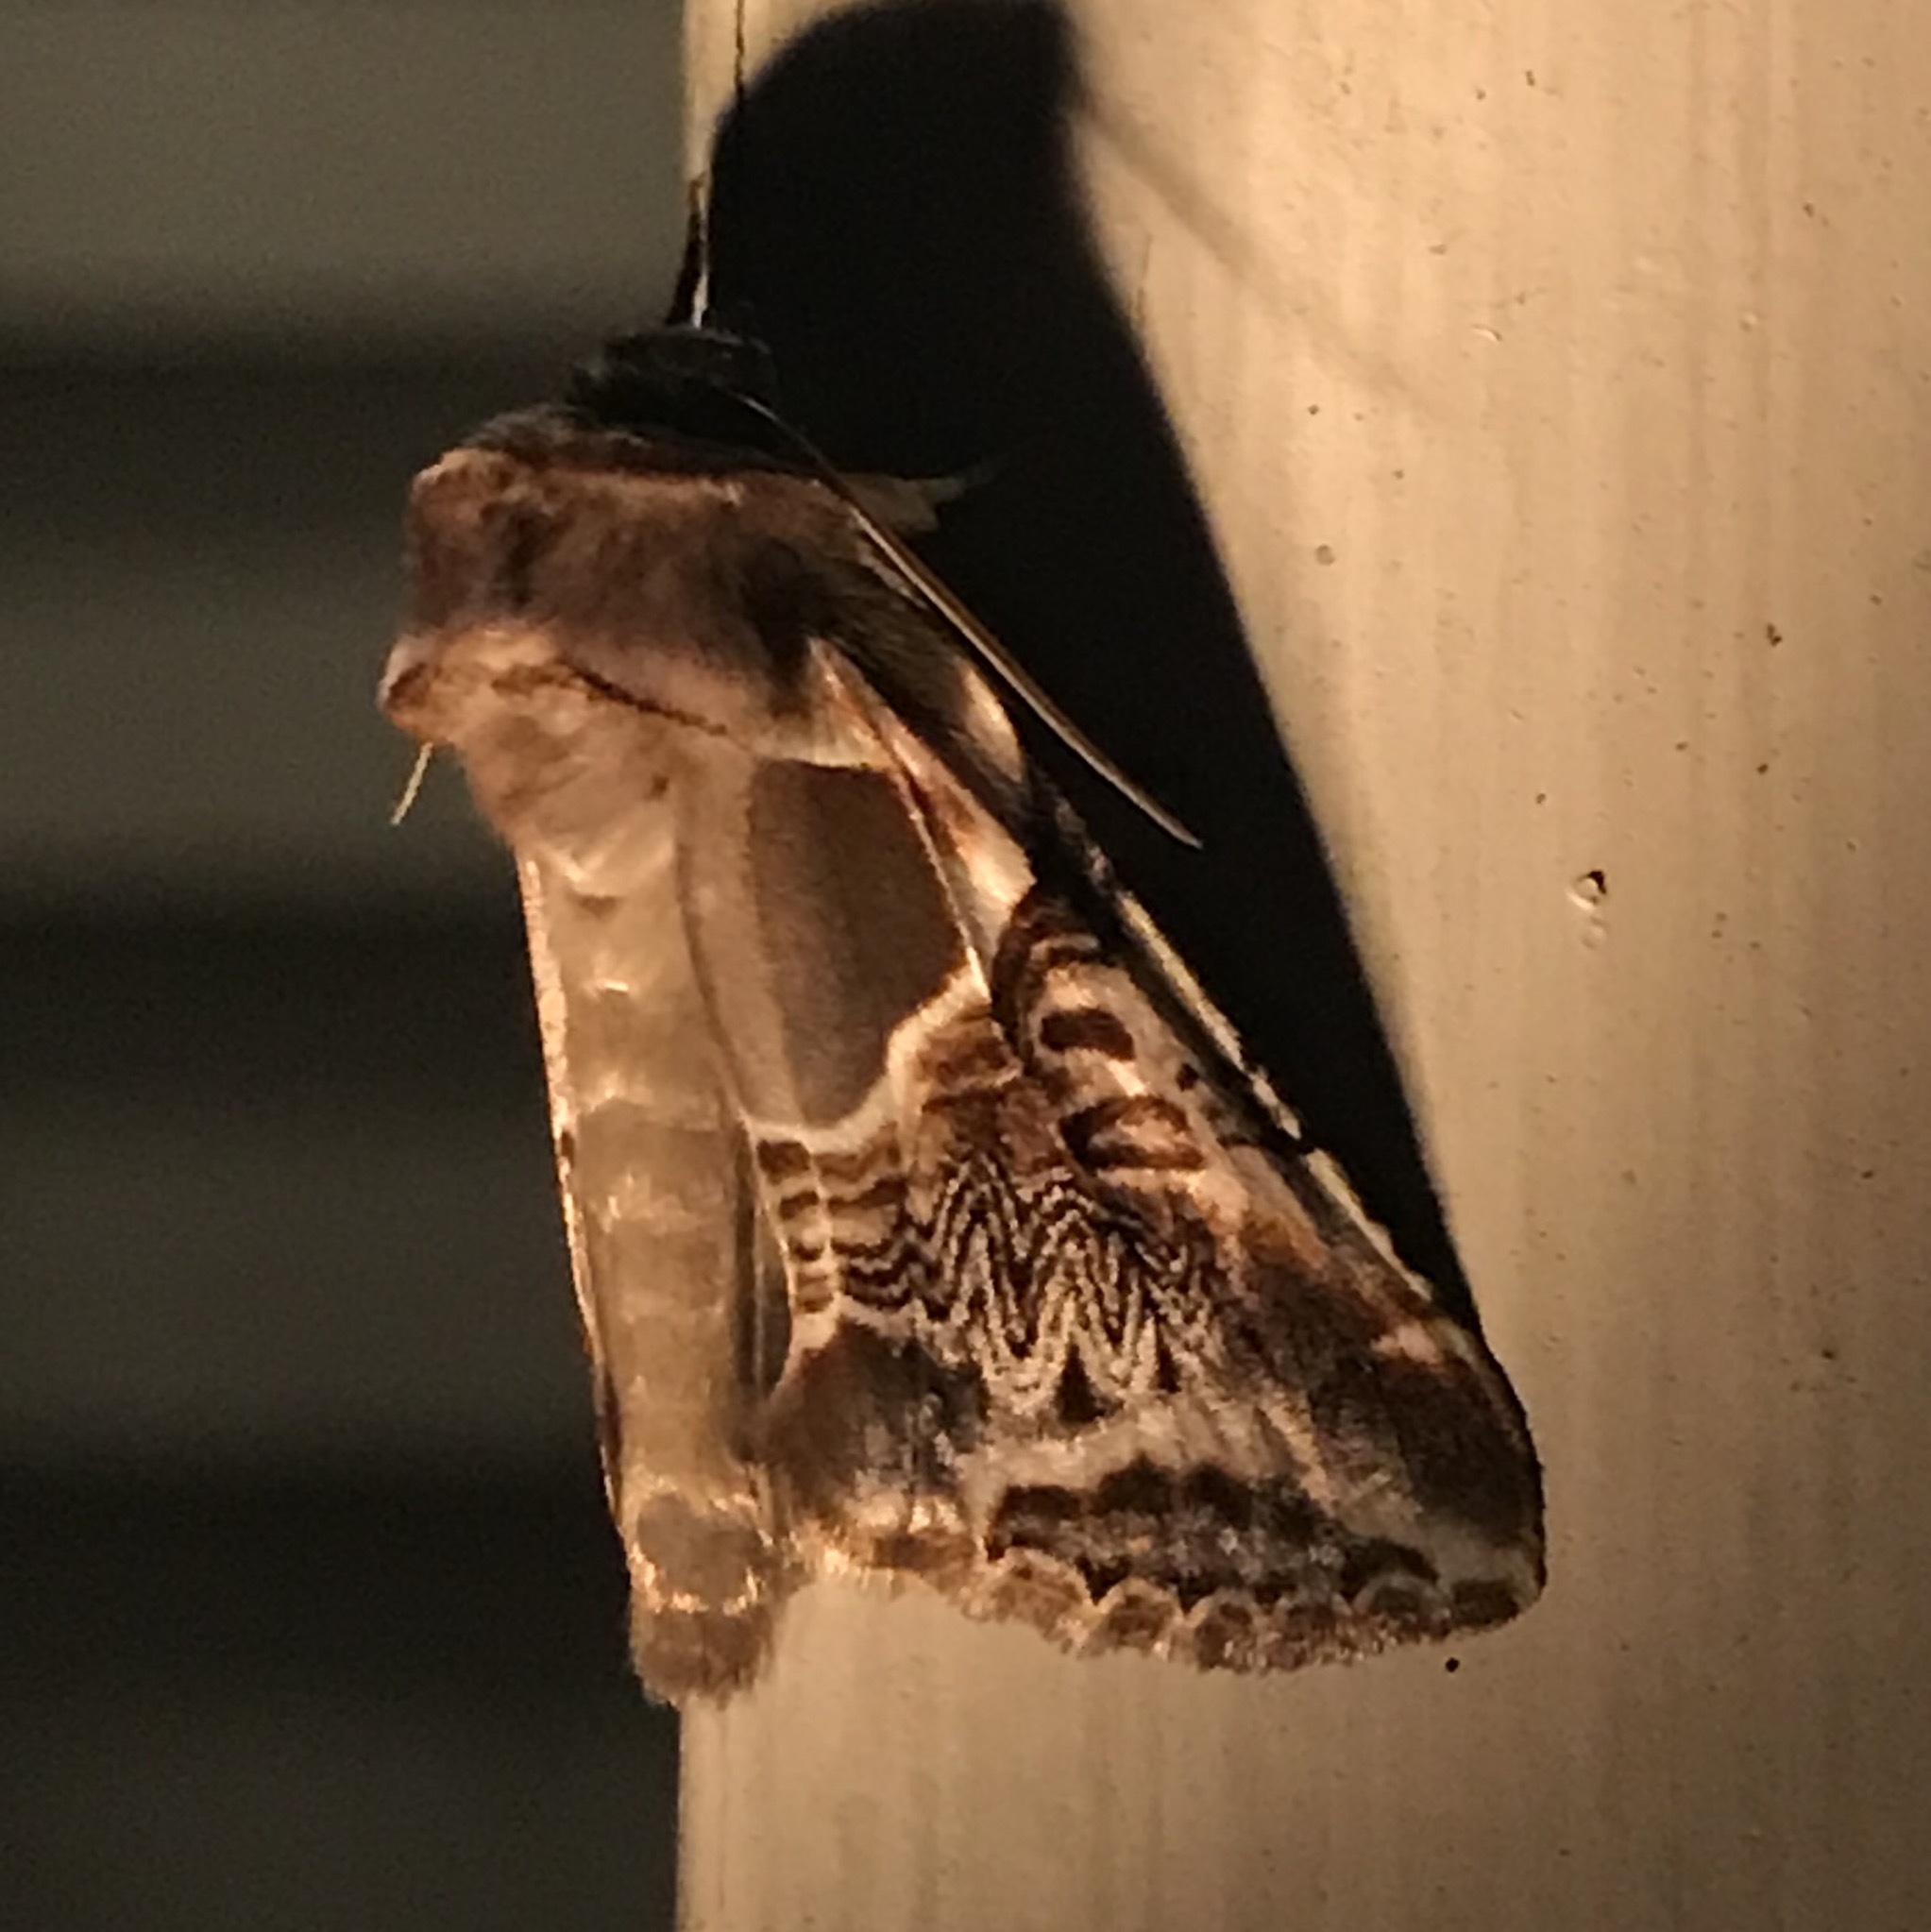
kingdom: Animalia
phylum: Arthropoda
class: Insecta
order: Lepidoptera
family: Drepanidae
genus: Habrosyne
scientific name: Habrosyne scripta
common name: Lettered habrosyne moth
